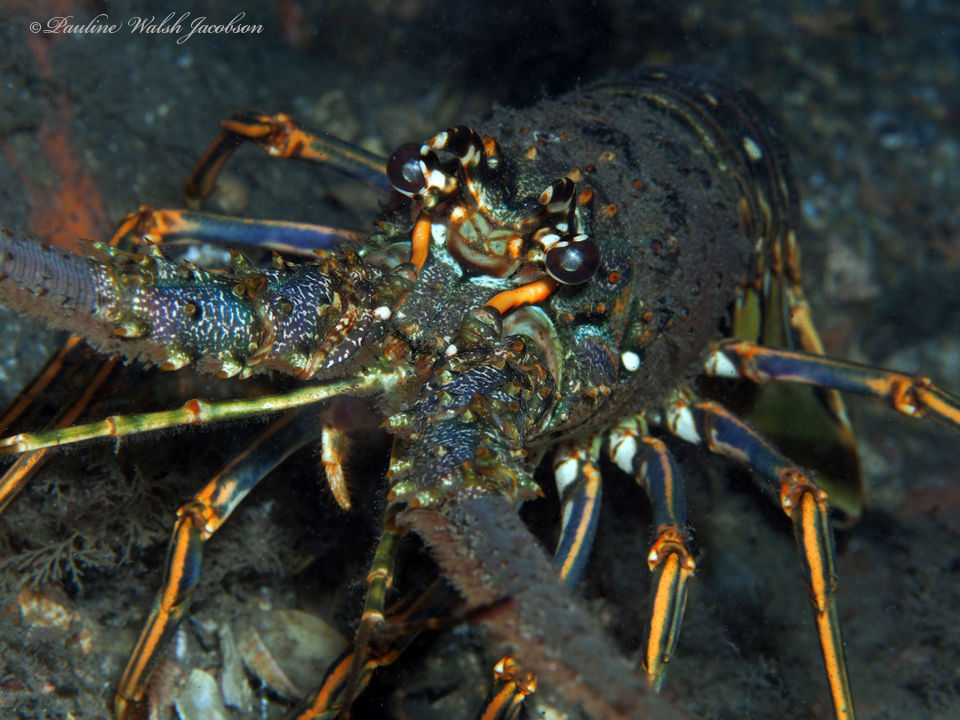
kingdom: Animalia
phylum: Arthropoda
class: Malacostraca
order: Decapoda
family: Palinuridae
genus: Panulirus
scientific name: Panulirus argus
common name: Caribbean spiny lobster
